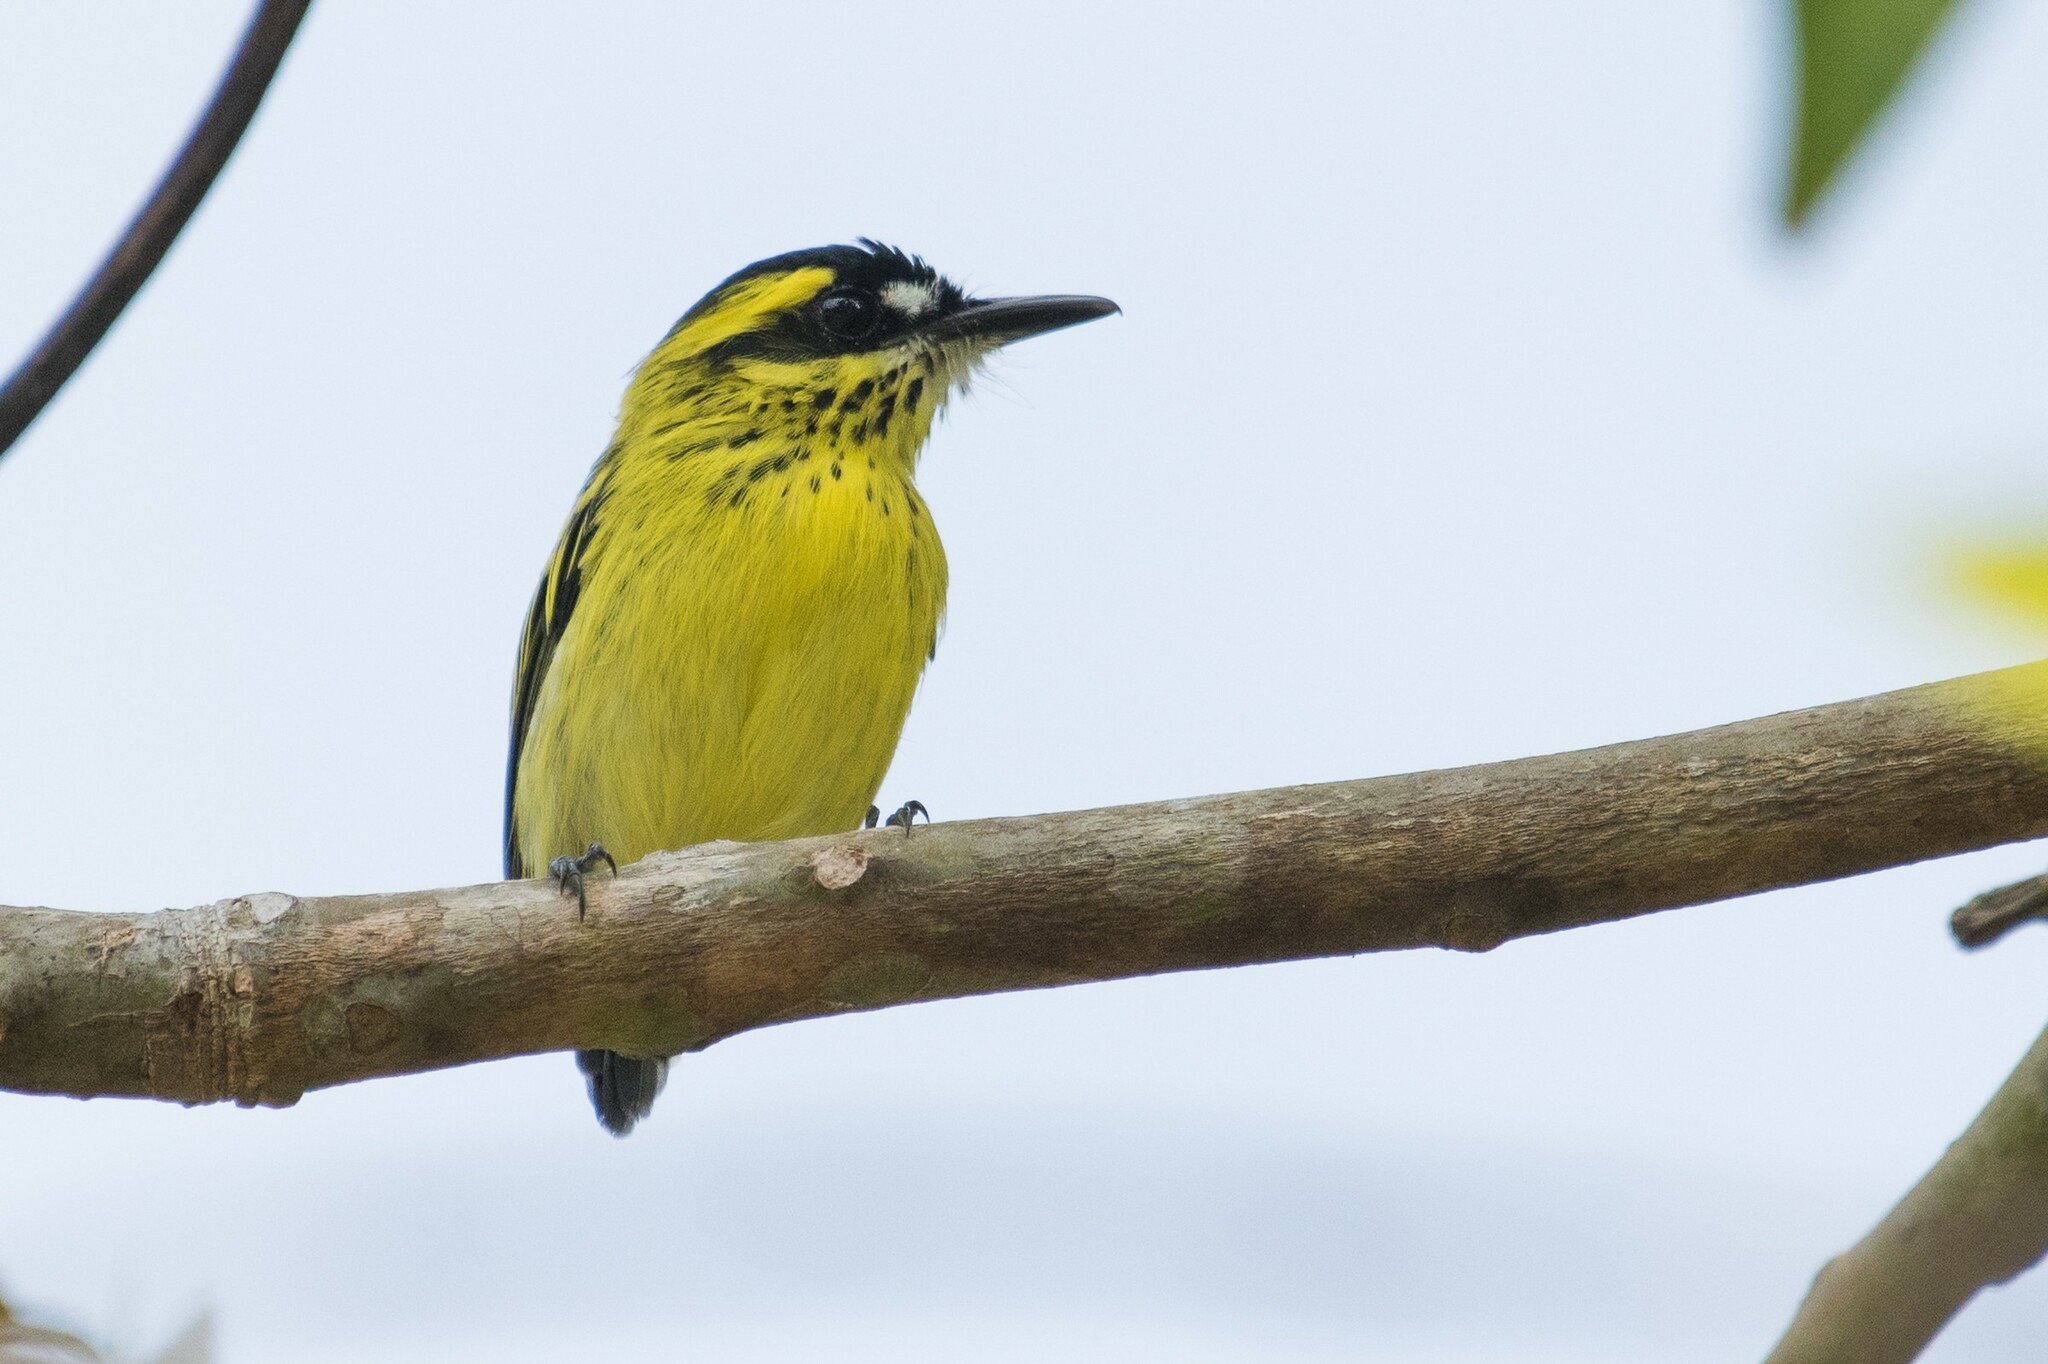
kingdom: Animalia
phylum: Chordata
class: Aves
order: Passeriformes
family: Tyrannidae
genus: Todirostrum
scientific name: Todirostrum chrysocrotaphum
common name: Yellow-browed tody-flycatcher
